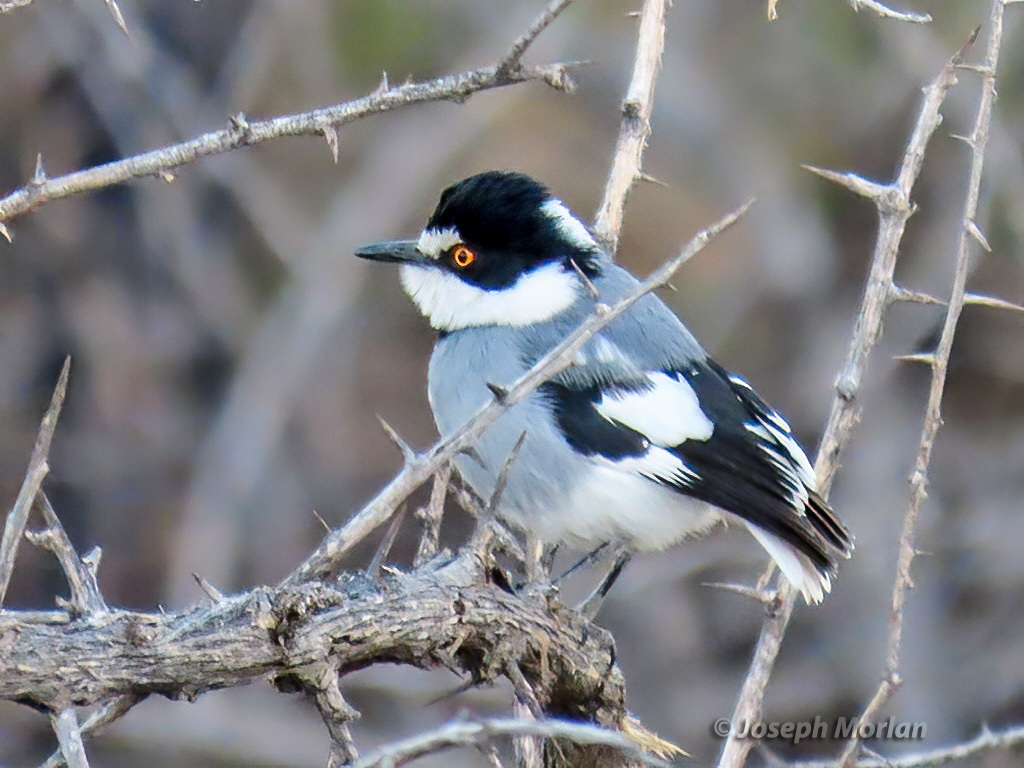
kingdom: Animalia
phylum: Chordata
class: Aves
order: Passeriformes
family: Platysteiridae
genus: Lanioturdus
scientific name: Lanioturdus torquatus
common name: White-tailed shrike
